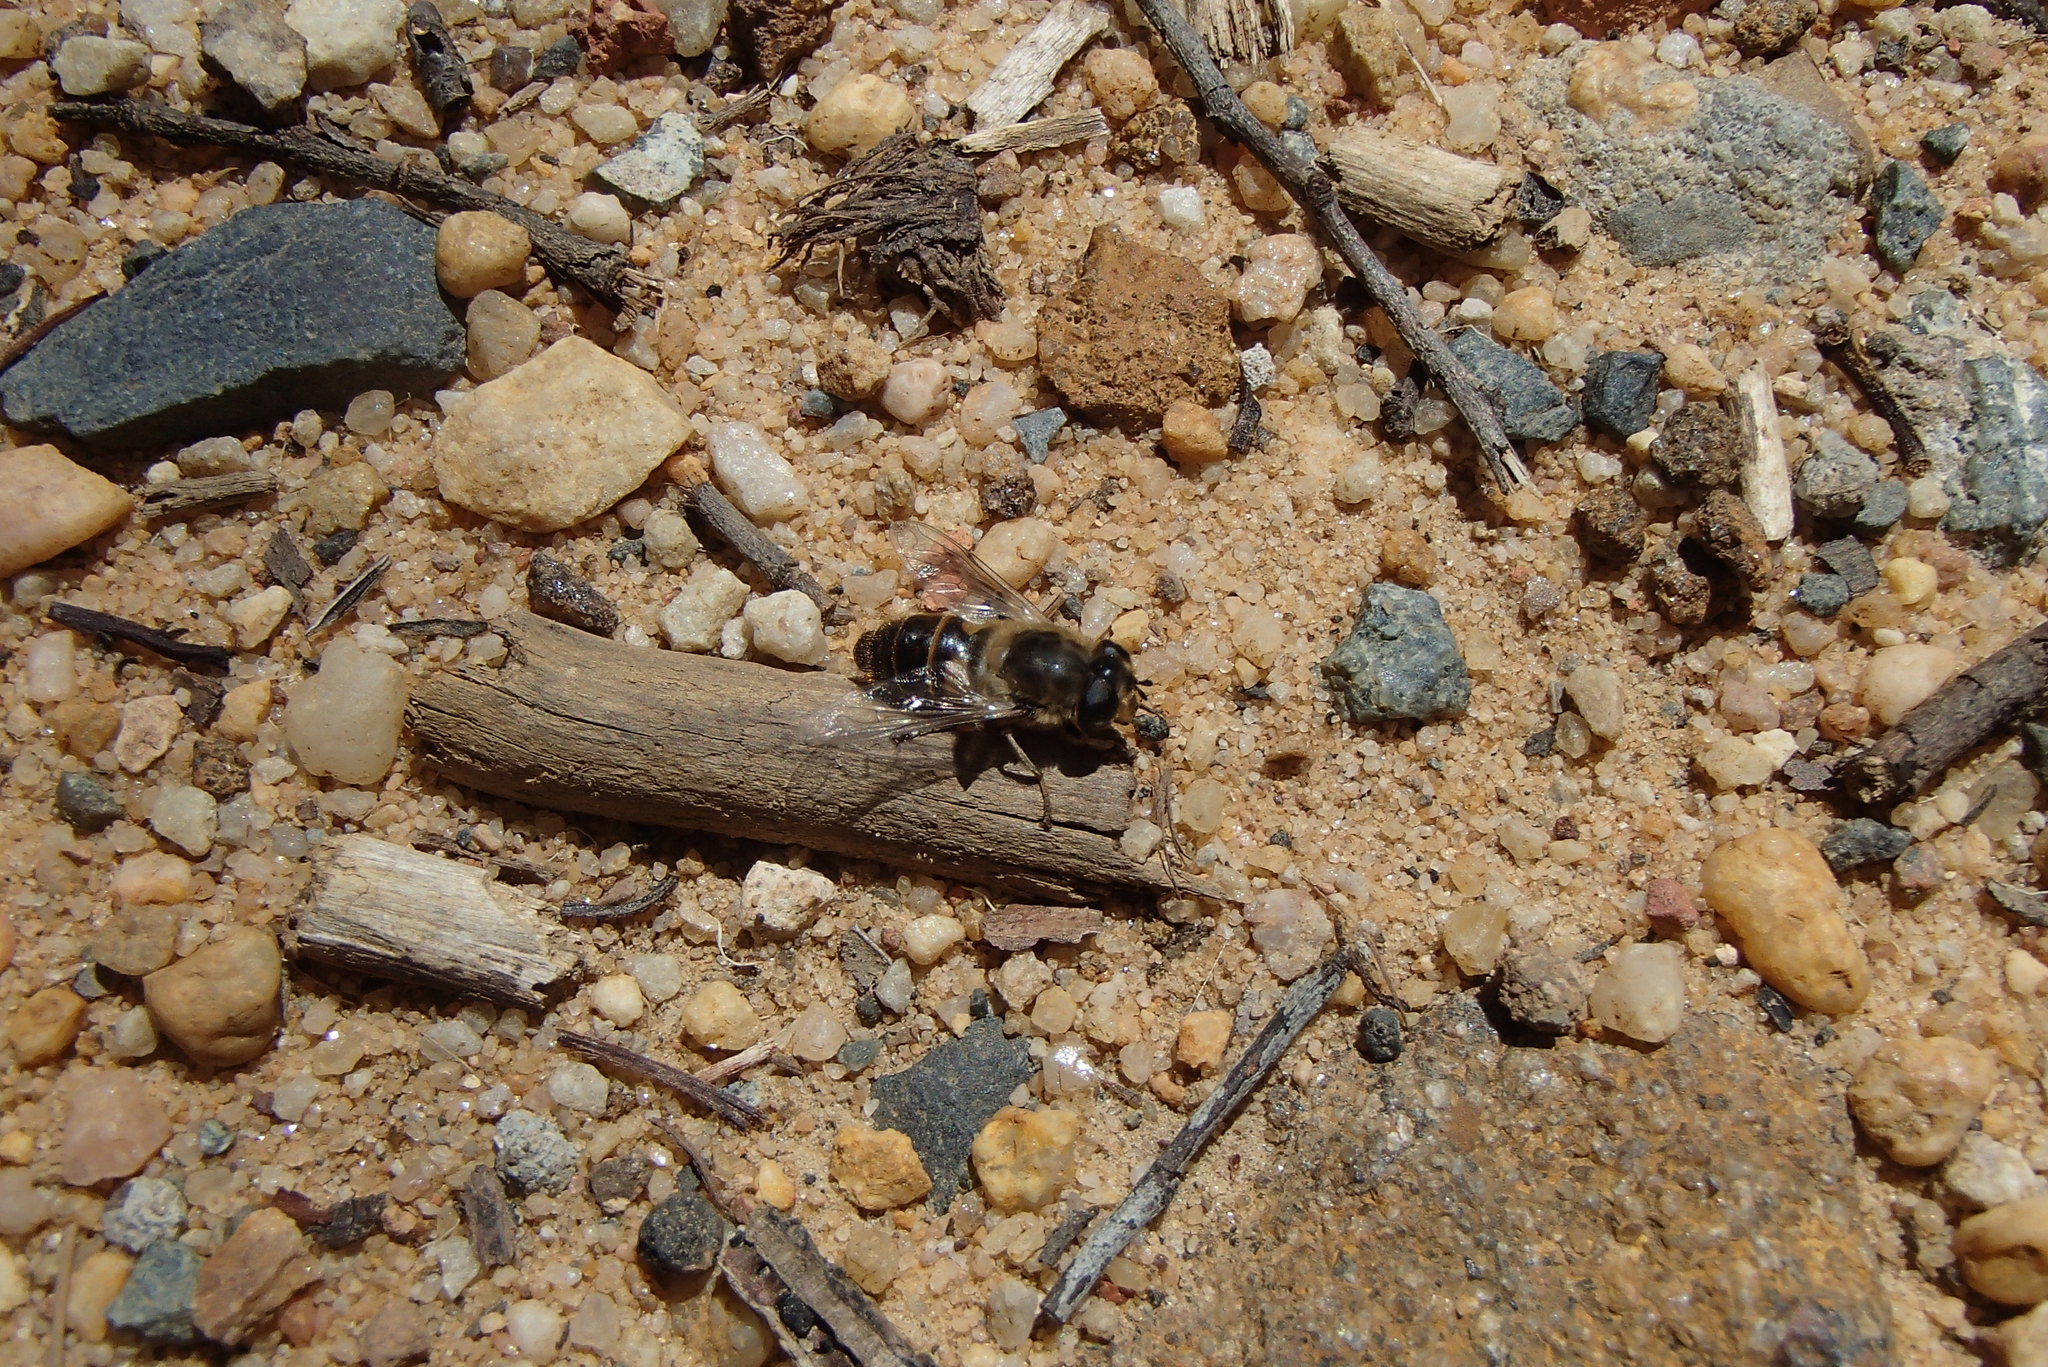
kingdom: Animalia
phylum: Arthropoda
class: Insecta
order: Diptera
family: Syrphidae
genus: Eristalis
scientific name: Eristalis tenax
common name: Drone fly
